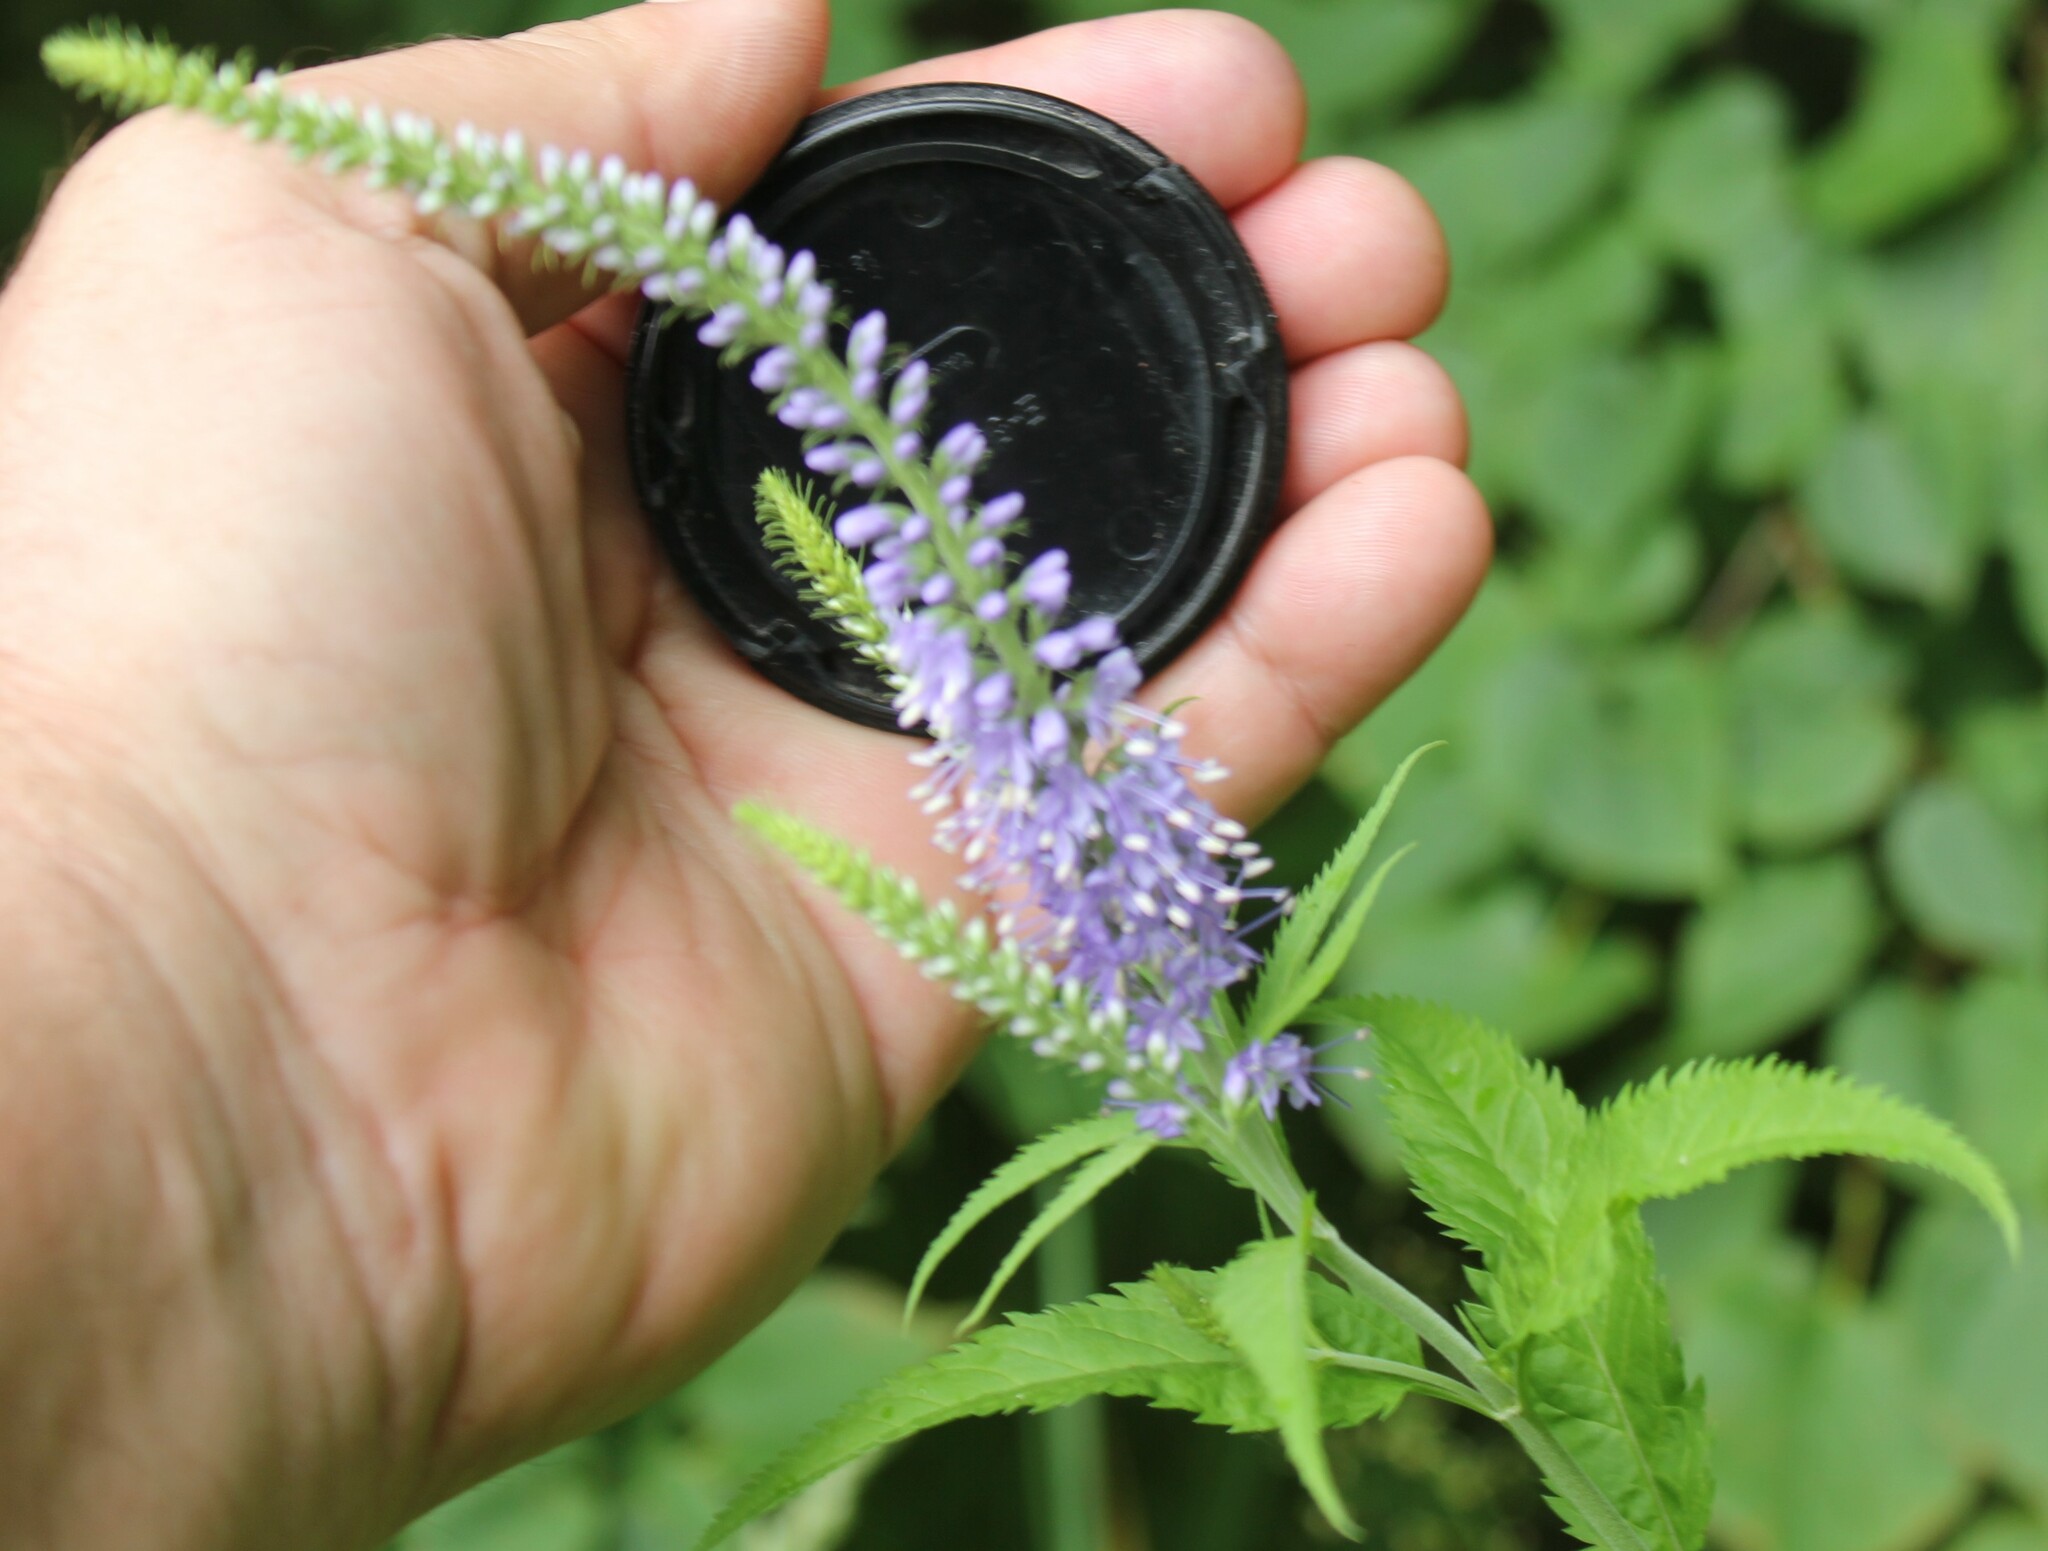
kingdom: Plantae
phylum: Tracheophyta
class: Magnoliopsida
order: Lamiales
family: Plantaginaceae
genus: Veronica
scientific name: Veronica longifolia
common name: Garden speedwell
